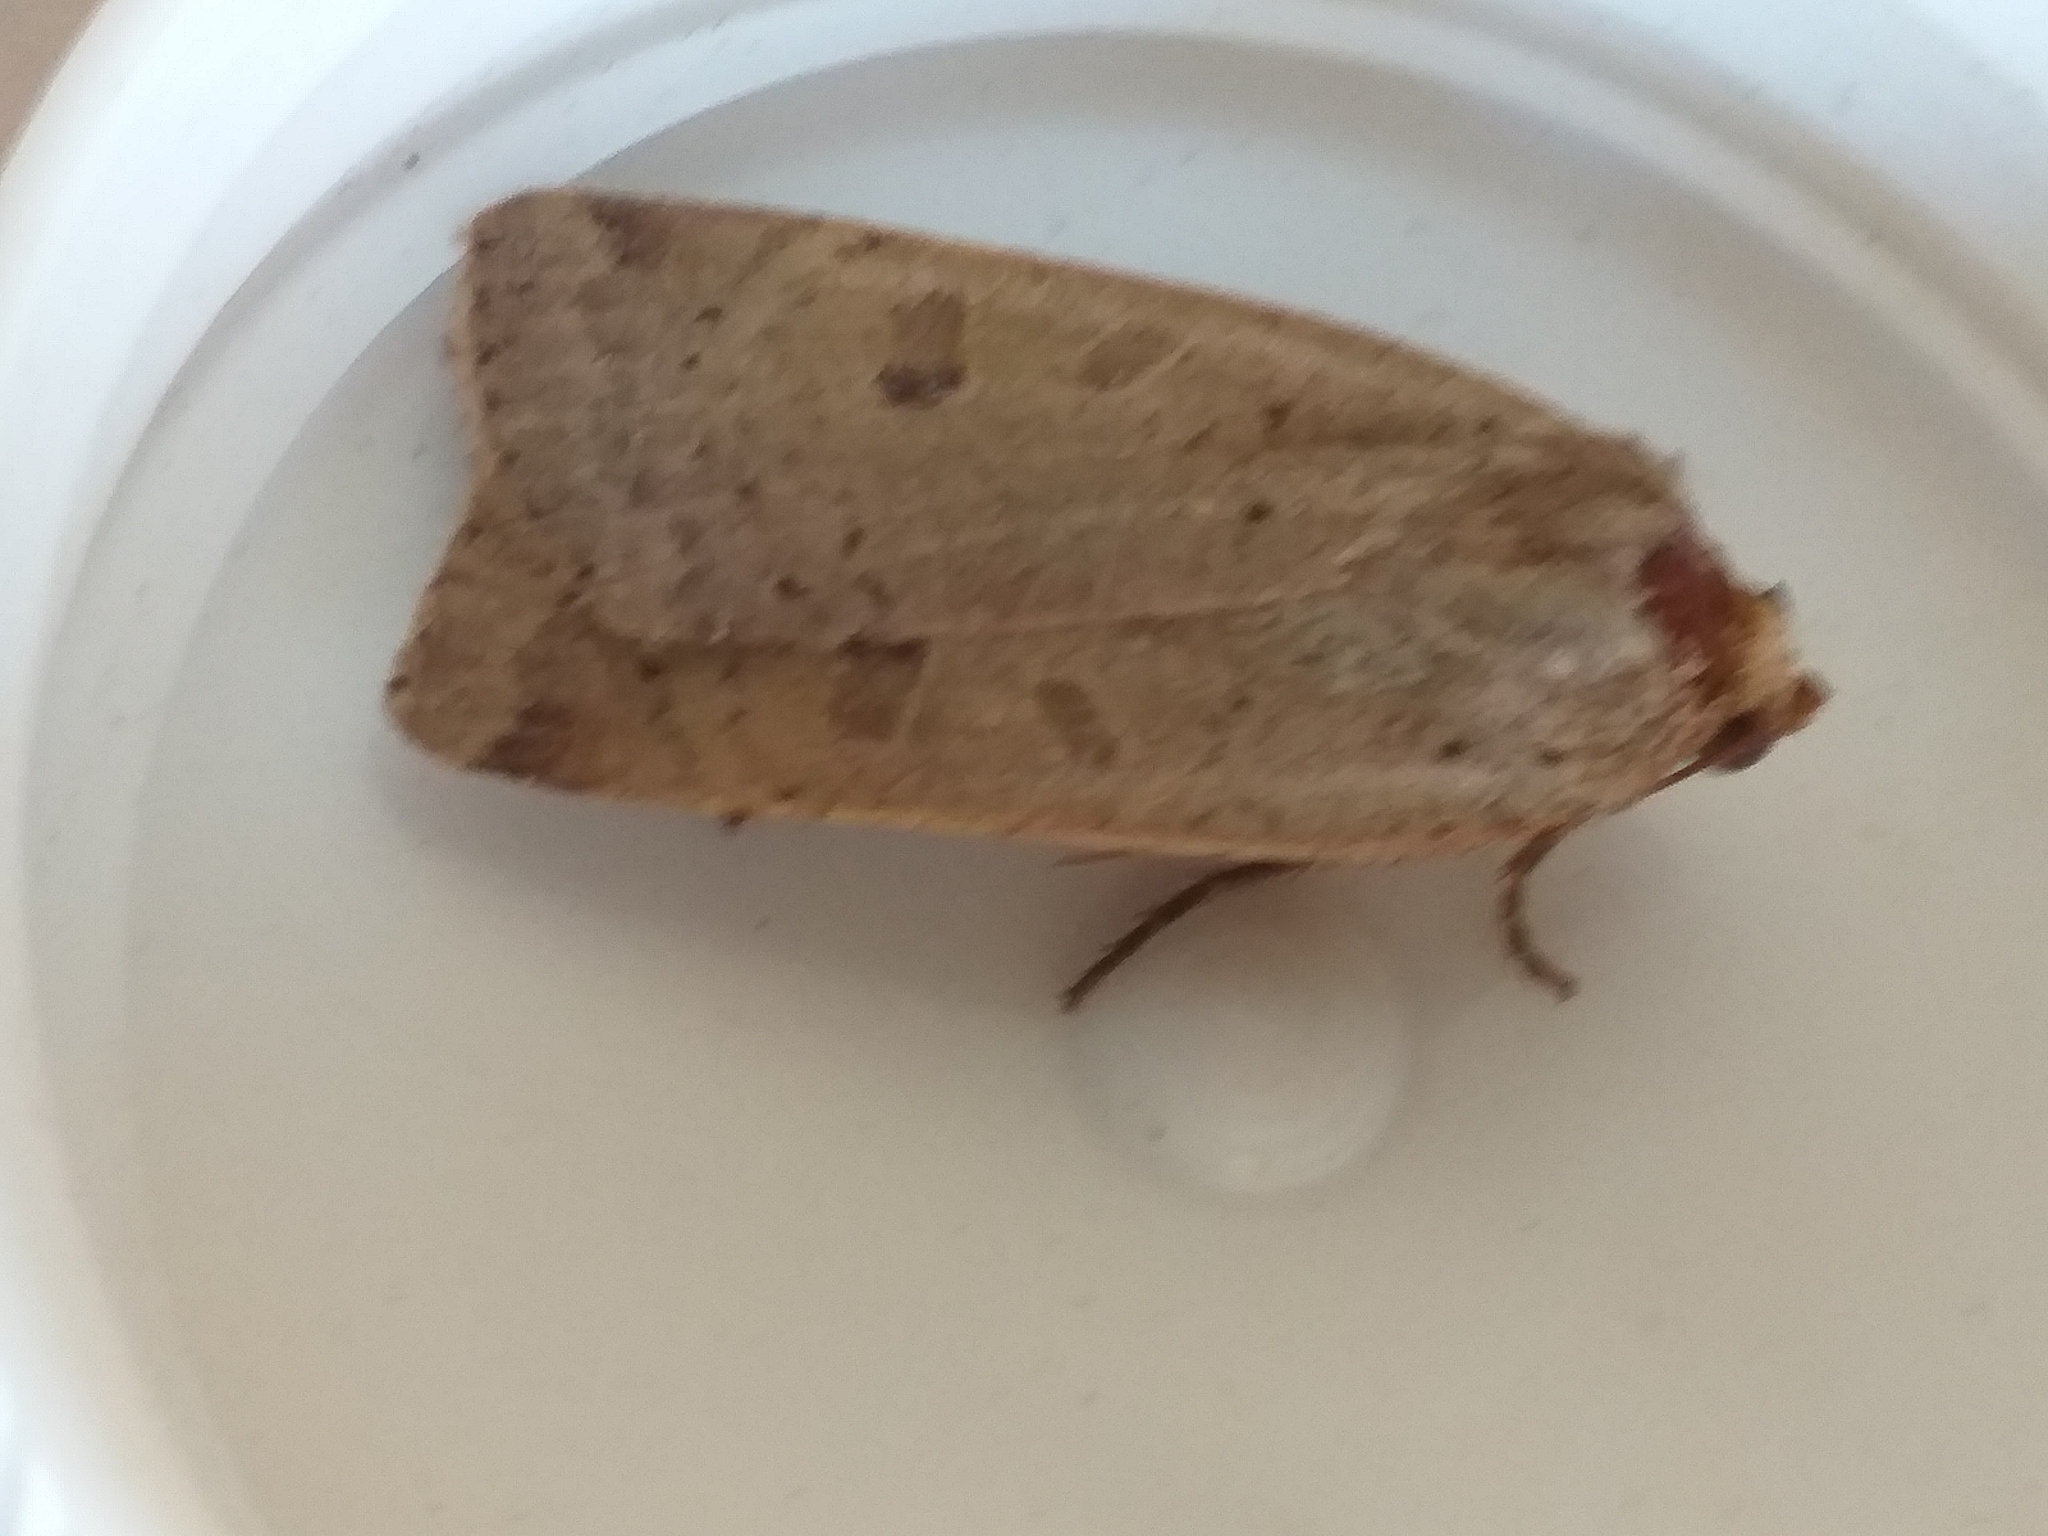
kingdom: Animalia
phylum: Arthropoda
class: Insecta
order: Lepidoptera
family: Noctuidae
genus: Noctua
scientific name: Noctua comes
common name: Lesser yellow underwing
